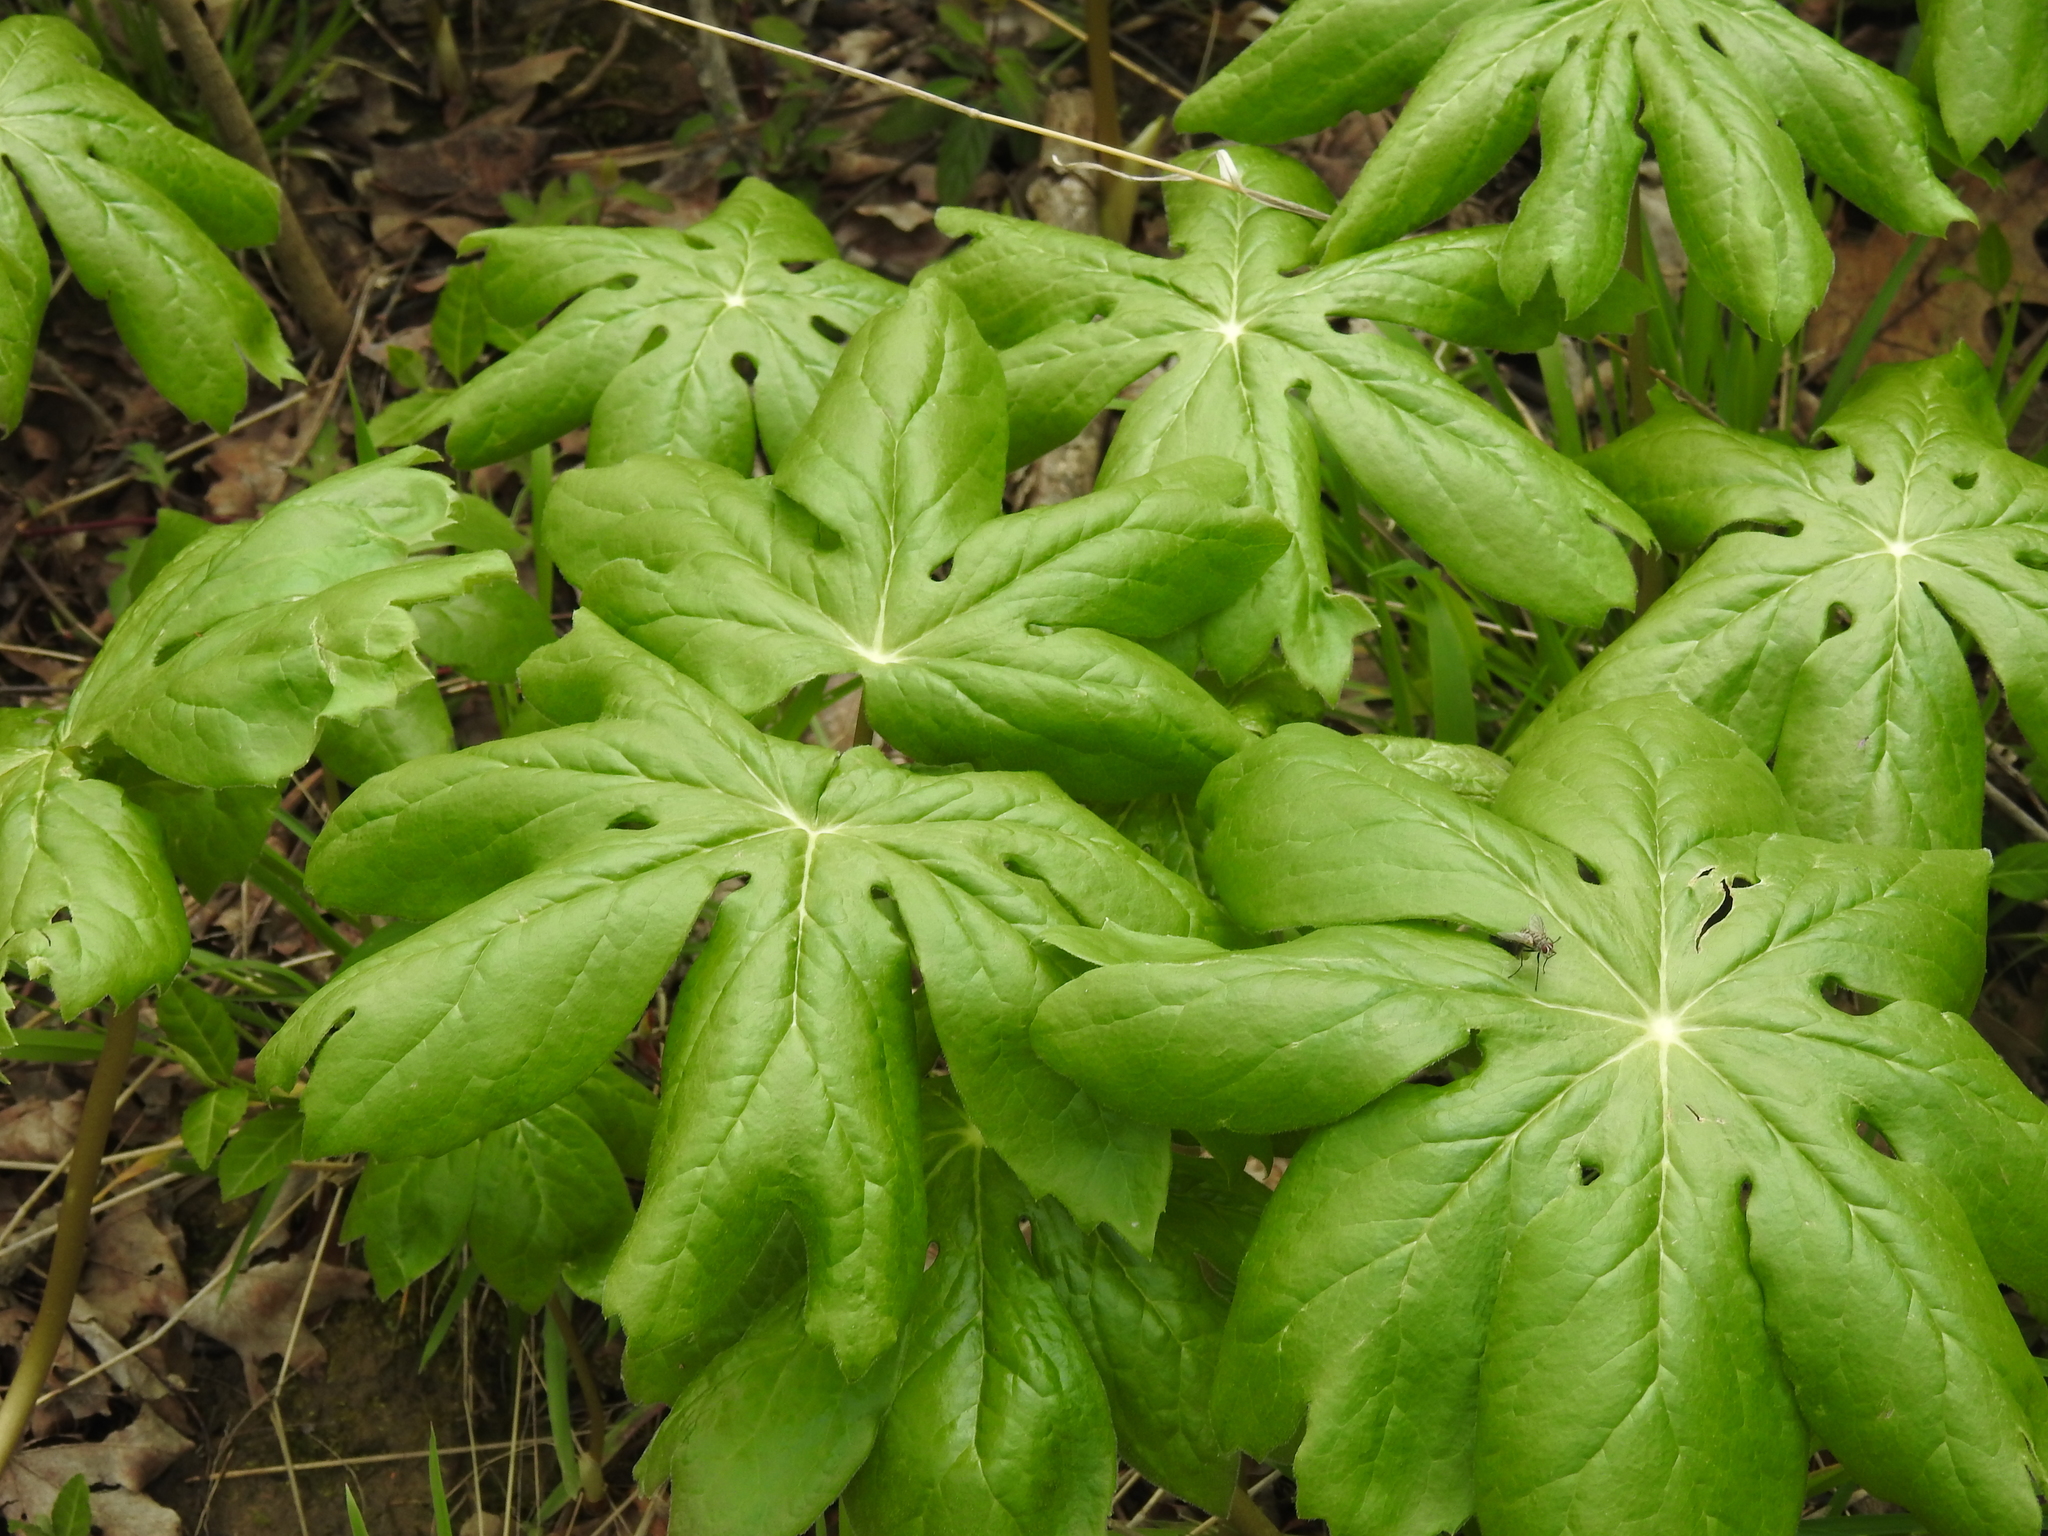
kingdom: Plantae
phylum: Tracheophyta
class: Magnoliopsida
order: Ranunculales
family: Berberidaceae
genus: Podophyllum
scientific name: Podophyllum peltatum
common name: Wild mandrake
